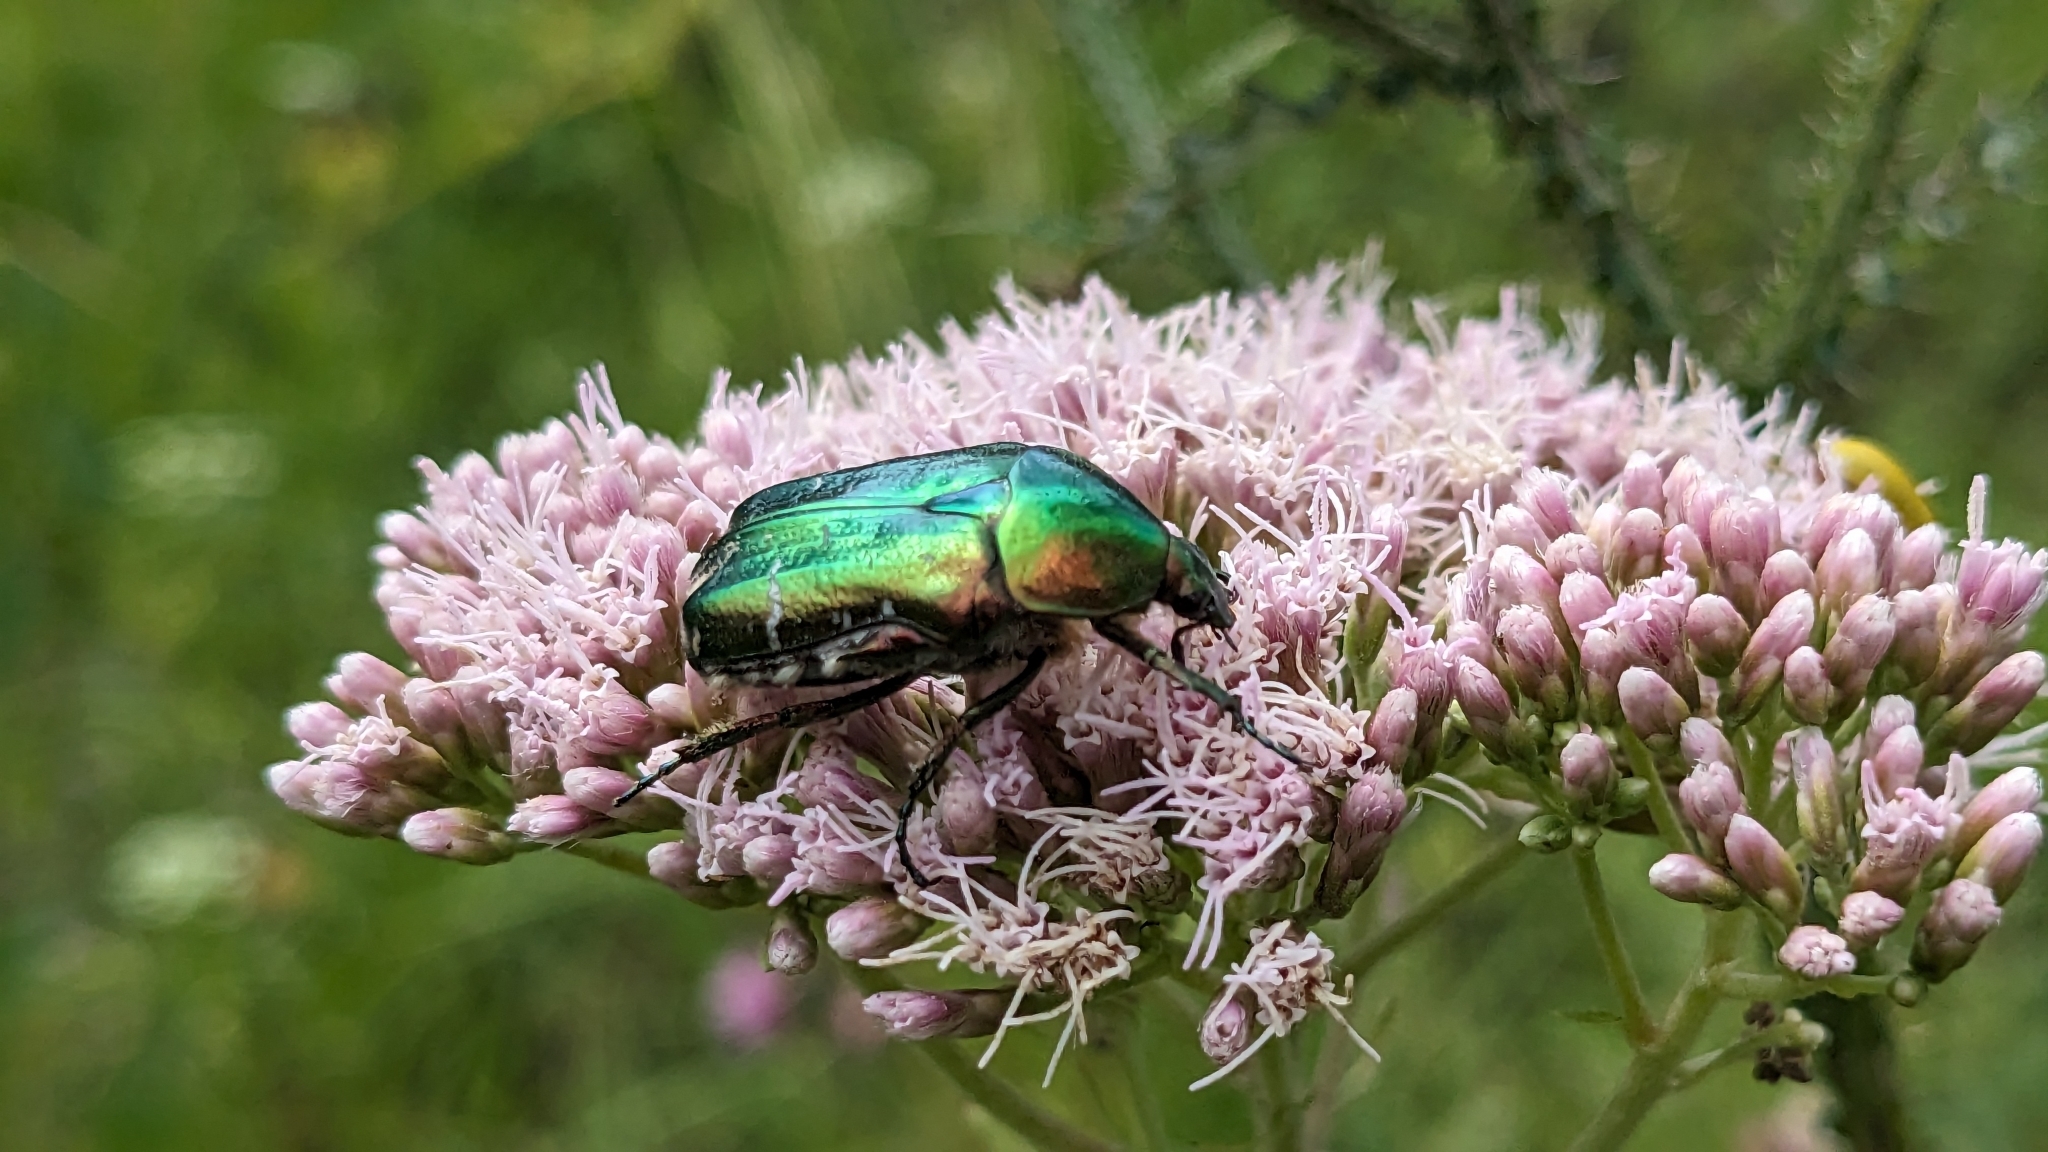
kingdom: Animalia
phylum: Arthropoda
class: Insecta
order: Coleoptera
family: Scarabaeidae
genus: Cetonia
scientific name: Cetonia aurata
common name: Rose chafer
